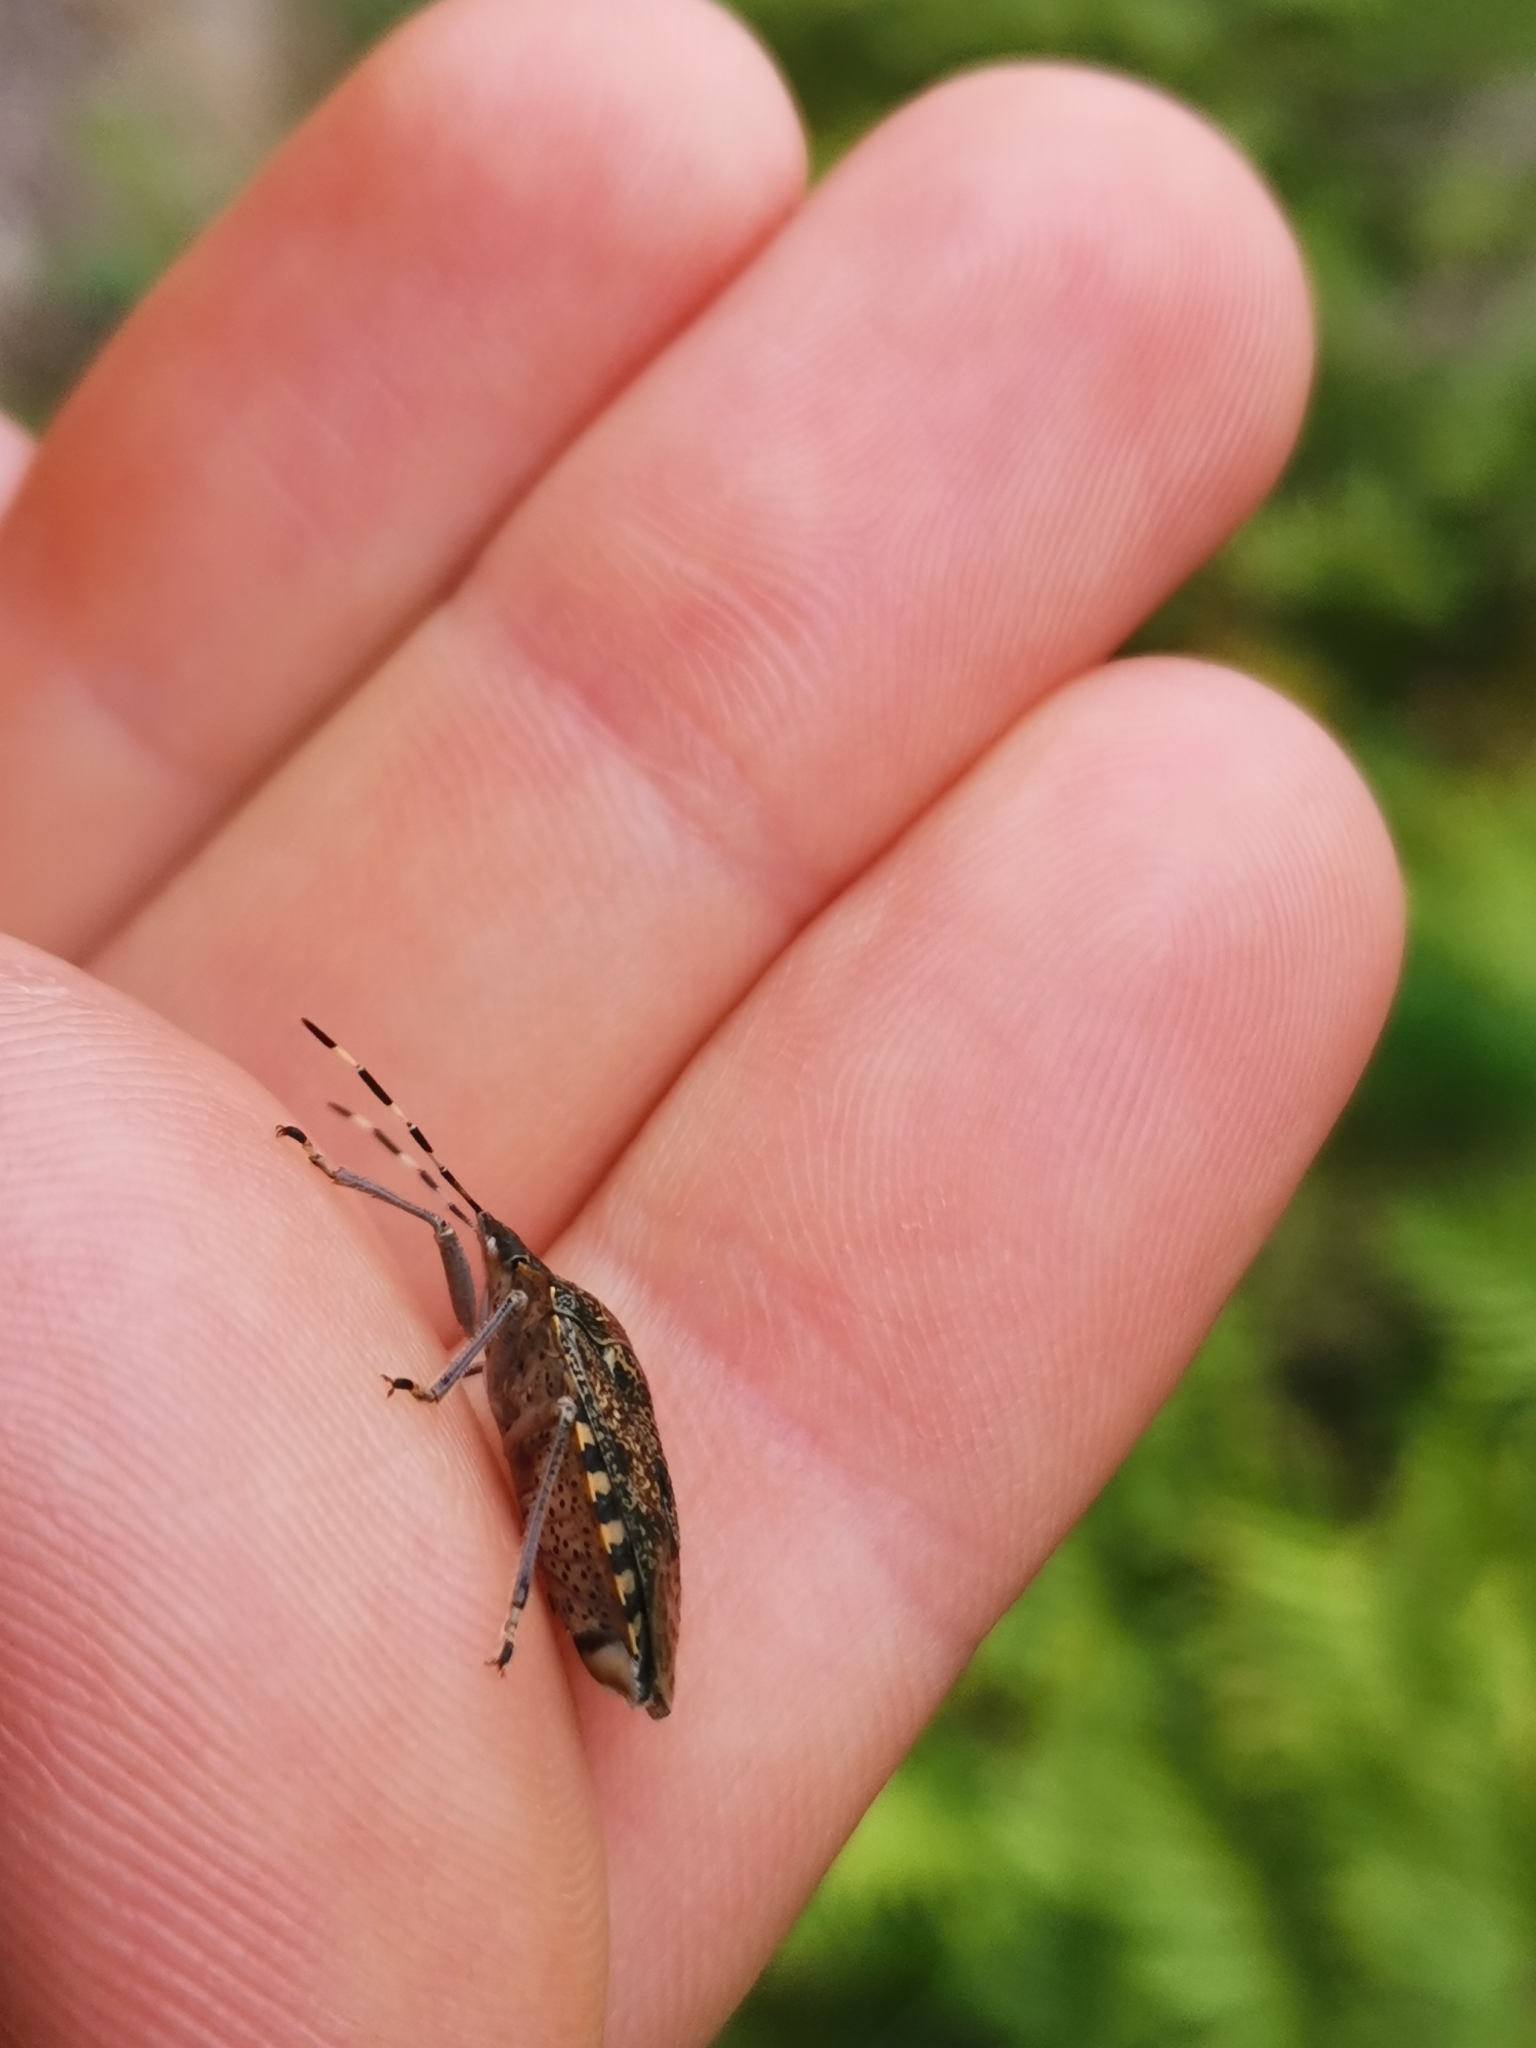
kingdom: Animalia
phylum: Arthropoda
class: Insecta
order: Hemiptera
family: Pentatomidae
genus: Rhaphigaster
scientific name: Rhaphigaster nebulosa
